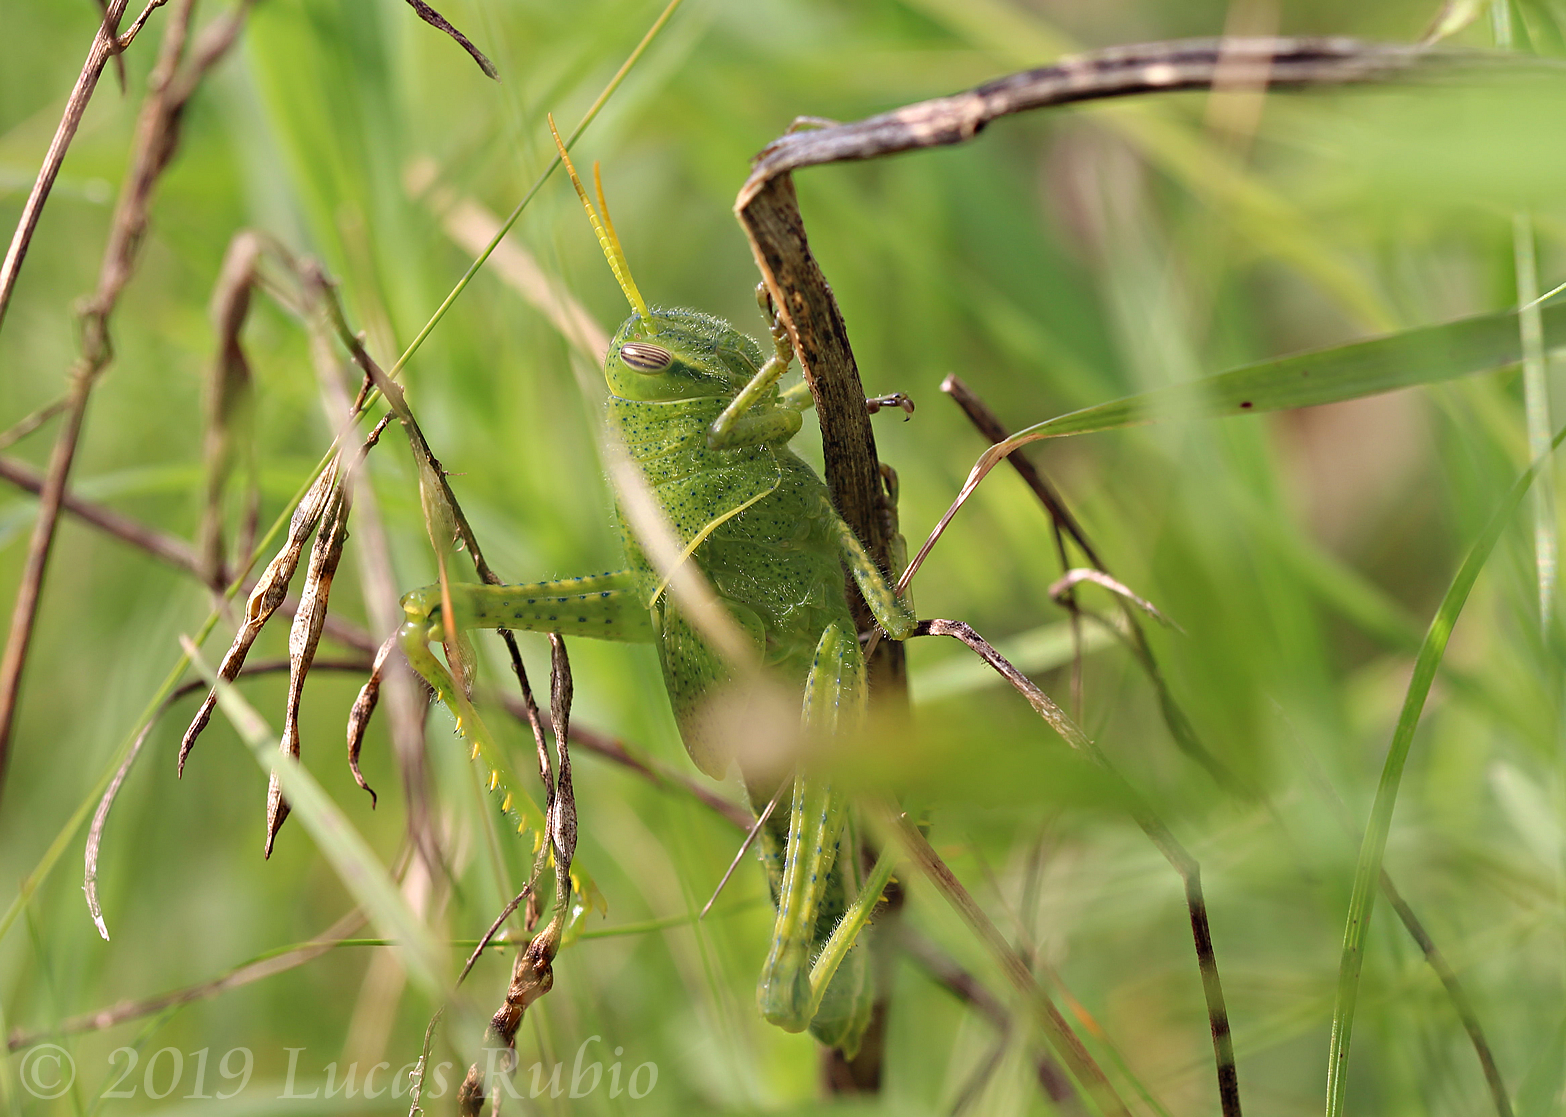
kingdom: Animalia
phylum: Arthropoda
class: Insecta
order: Orthoptera
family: Acrididae
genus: Schistocerca
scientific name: Schistocerca flavofasciata
